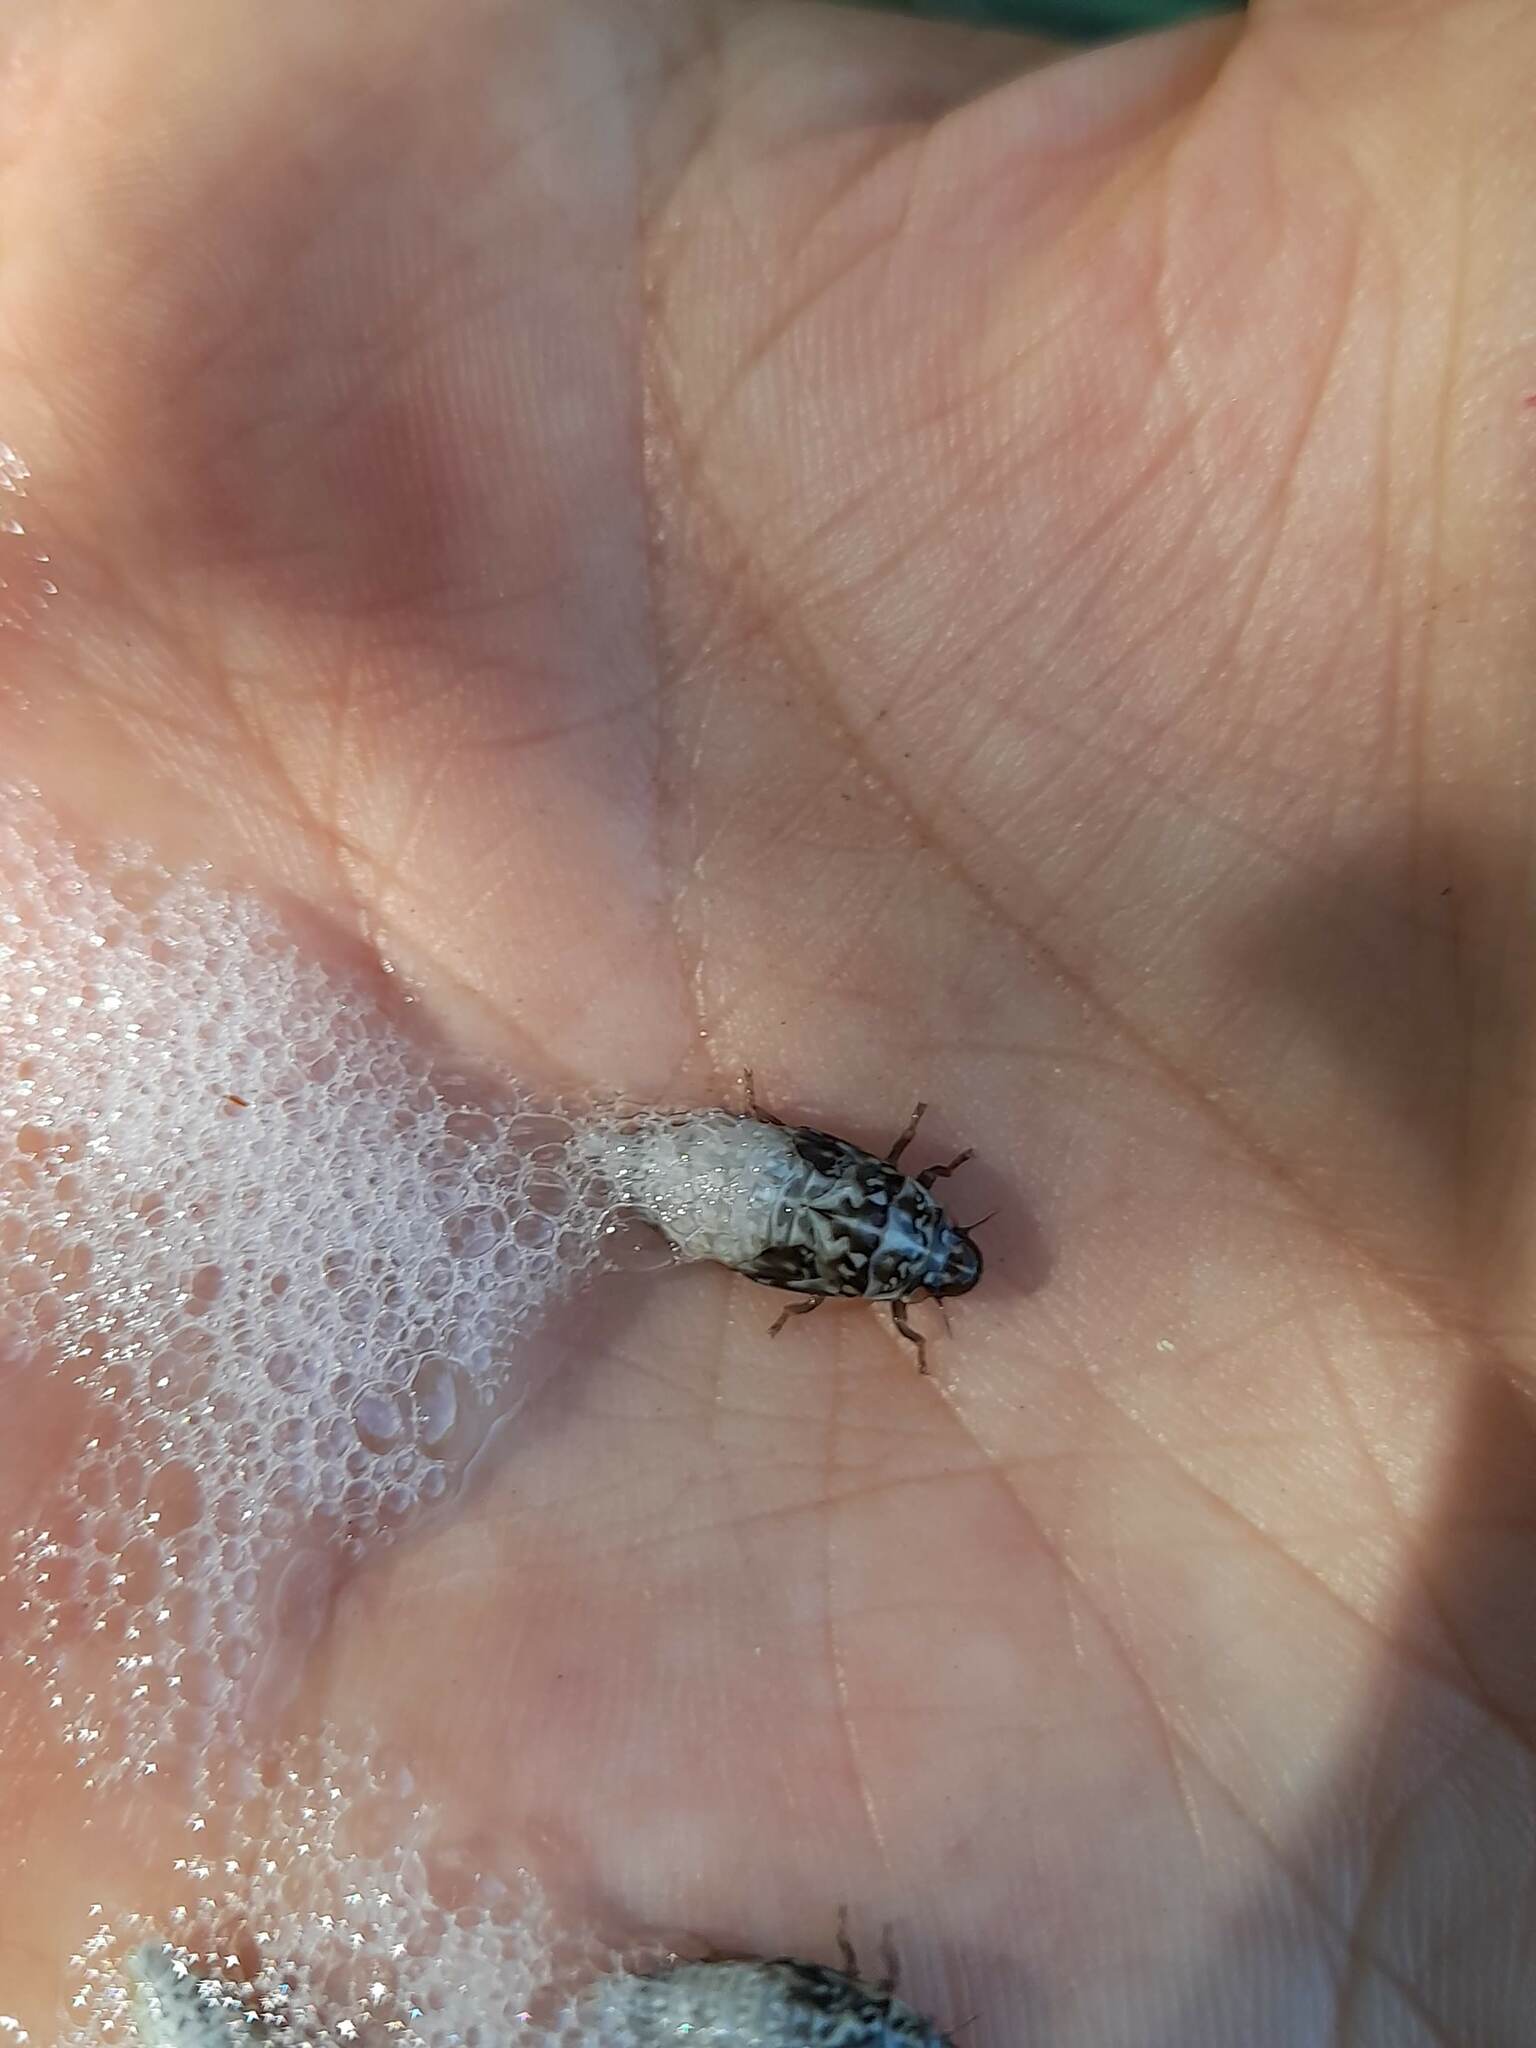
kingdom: Animalia
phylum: Arthropoda
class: Insecta
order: Hemiptera
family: Aphrophoridae
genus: Cephisus
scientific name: Cephisus siccifolius
